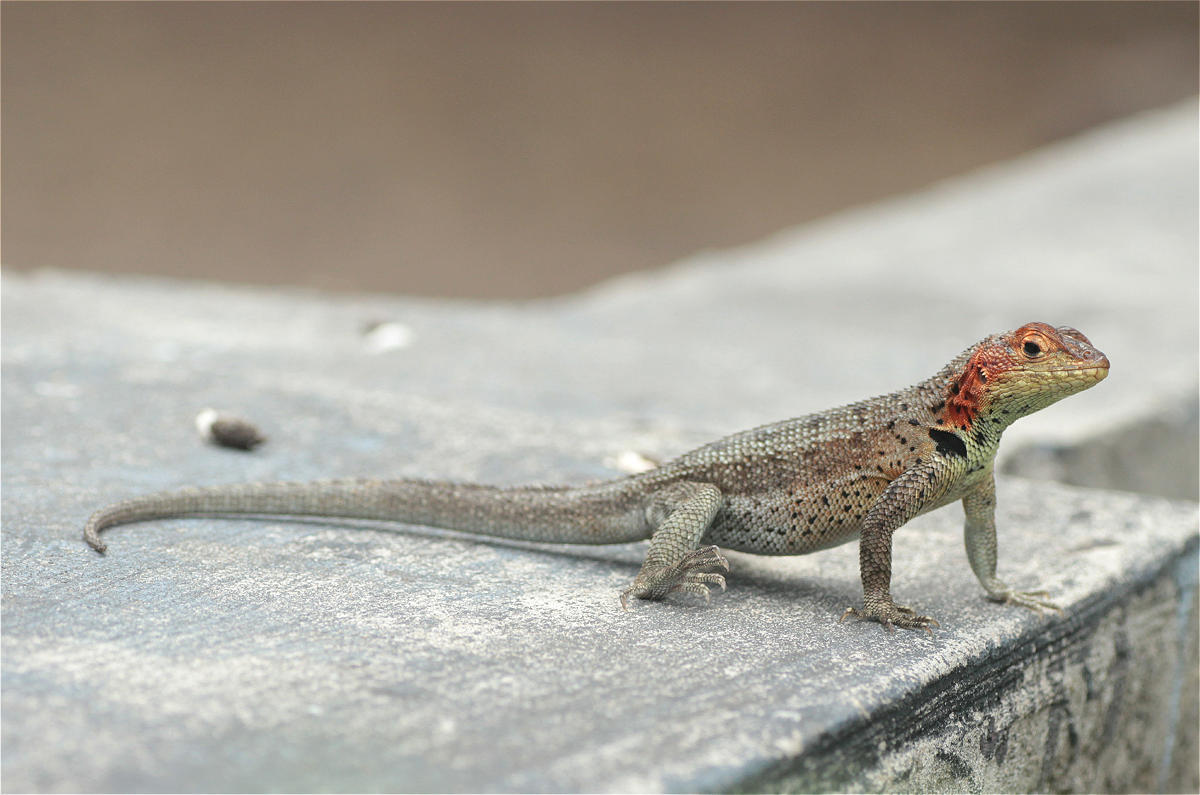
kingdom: Animalia
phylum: Chordata
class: Squamata
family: Tropiduridae
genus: Microlophus
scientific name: Microlophus albemarlensis
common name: Galapagos lava lizard
